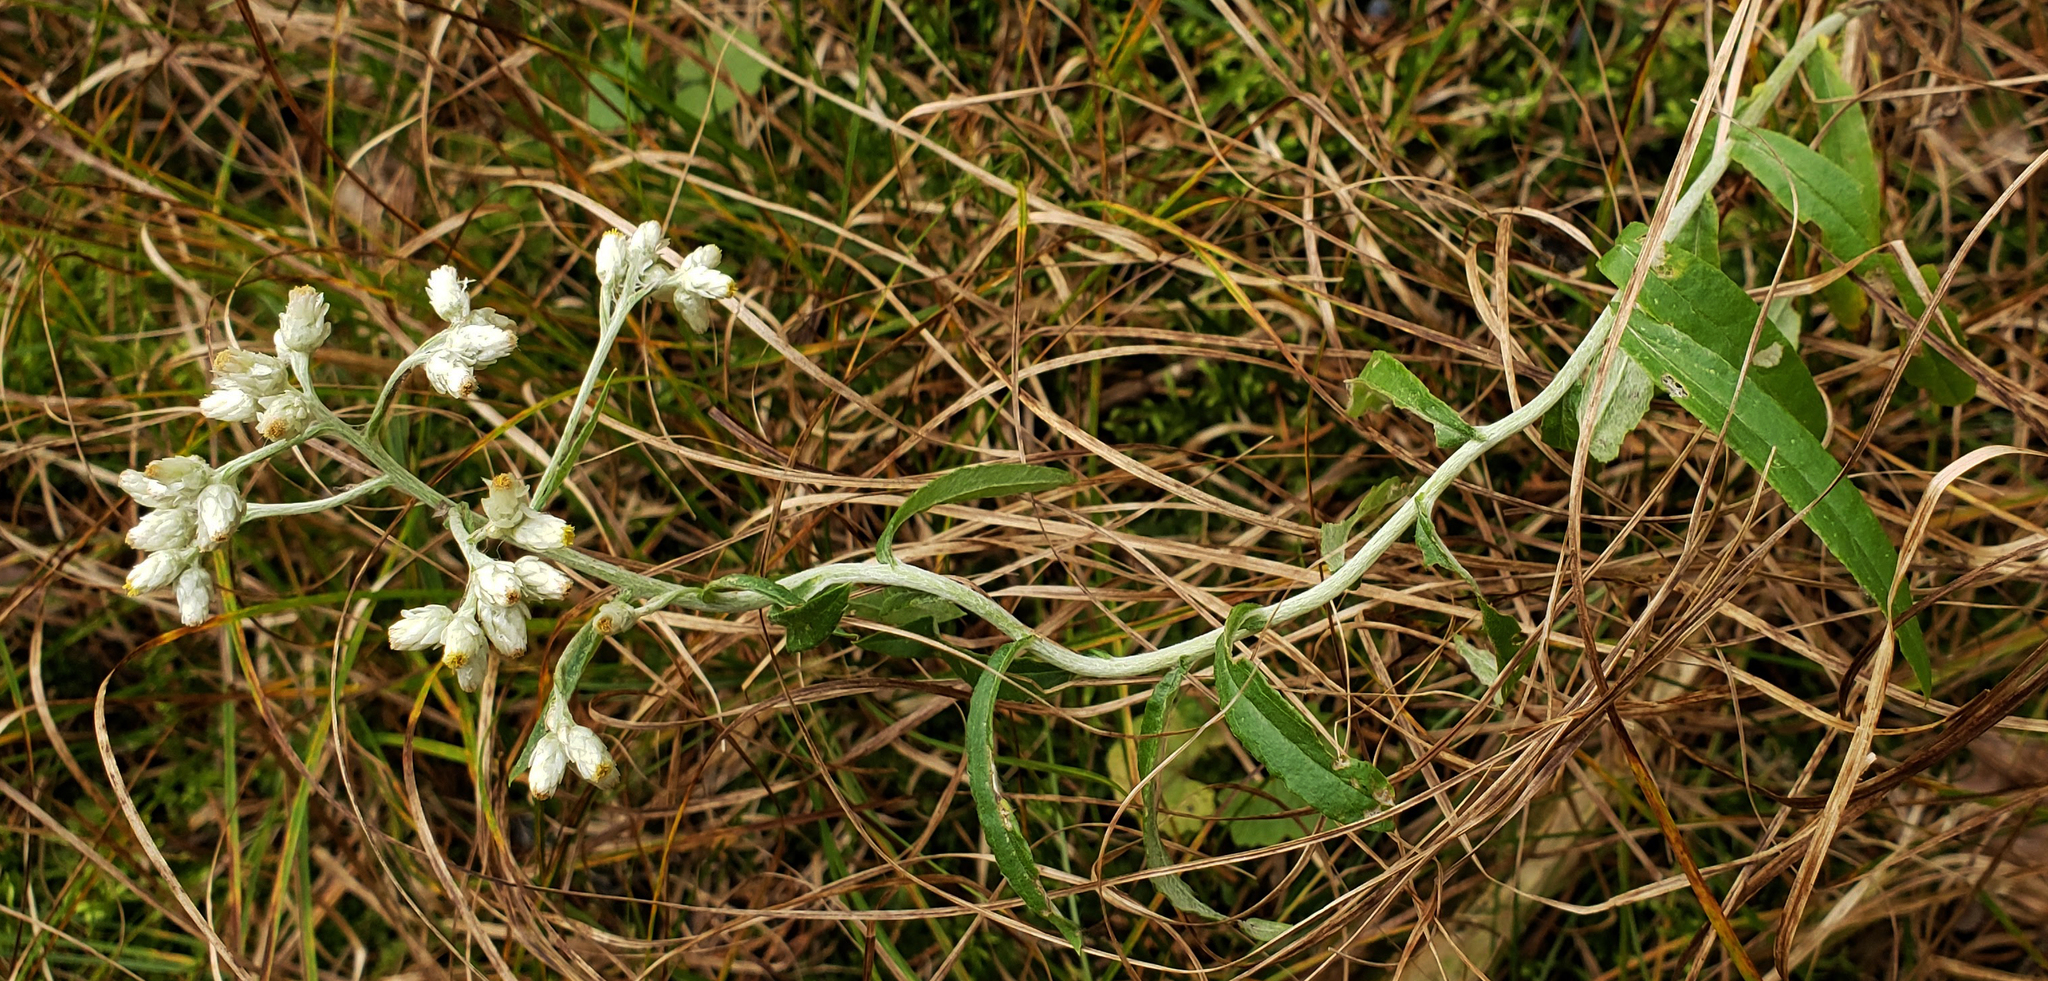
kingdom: Plantae
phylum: Tracheophyta
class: Magnoliopsida
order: Asterales
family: Asteraceae
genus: Pseudognaphalium
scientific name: Pseudognaphalium obtusifolium
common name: Eastern rabbit-tobacco
